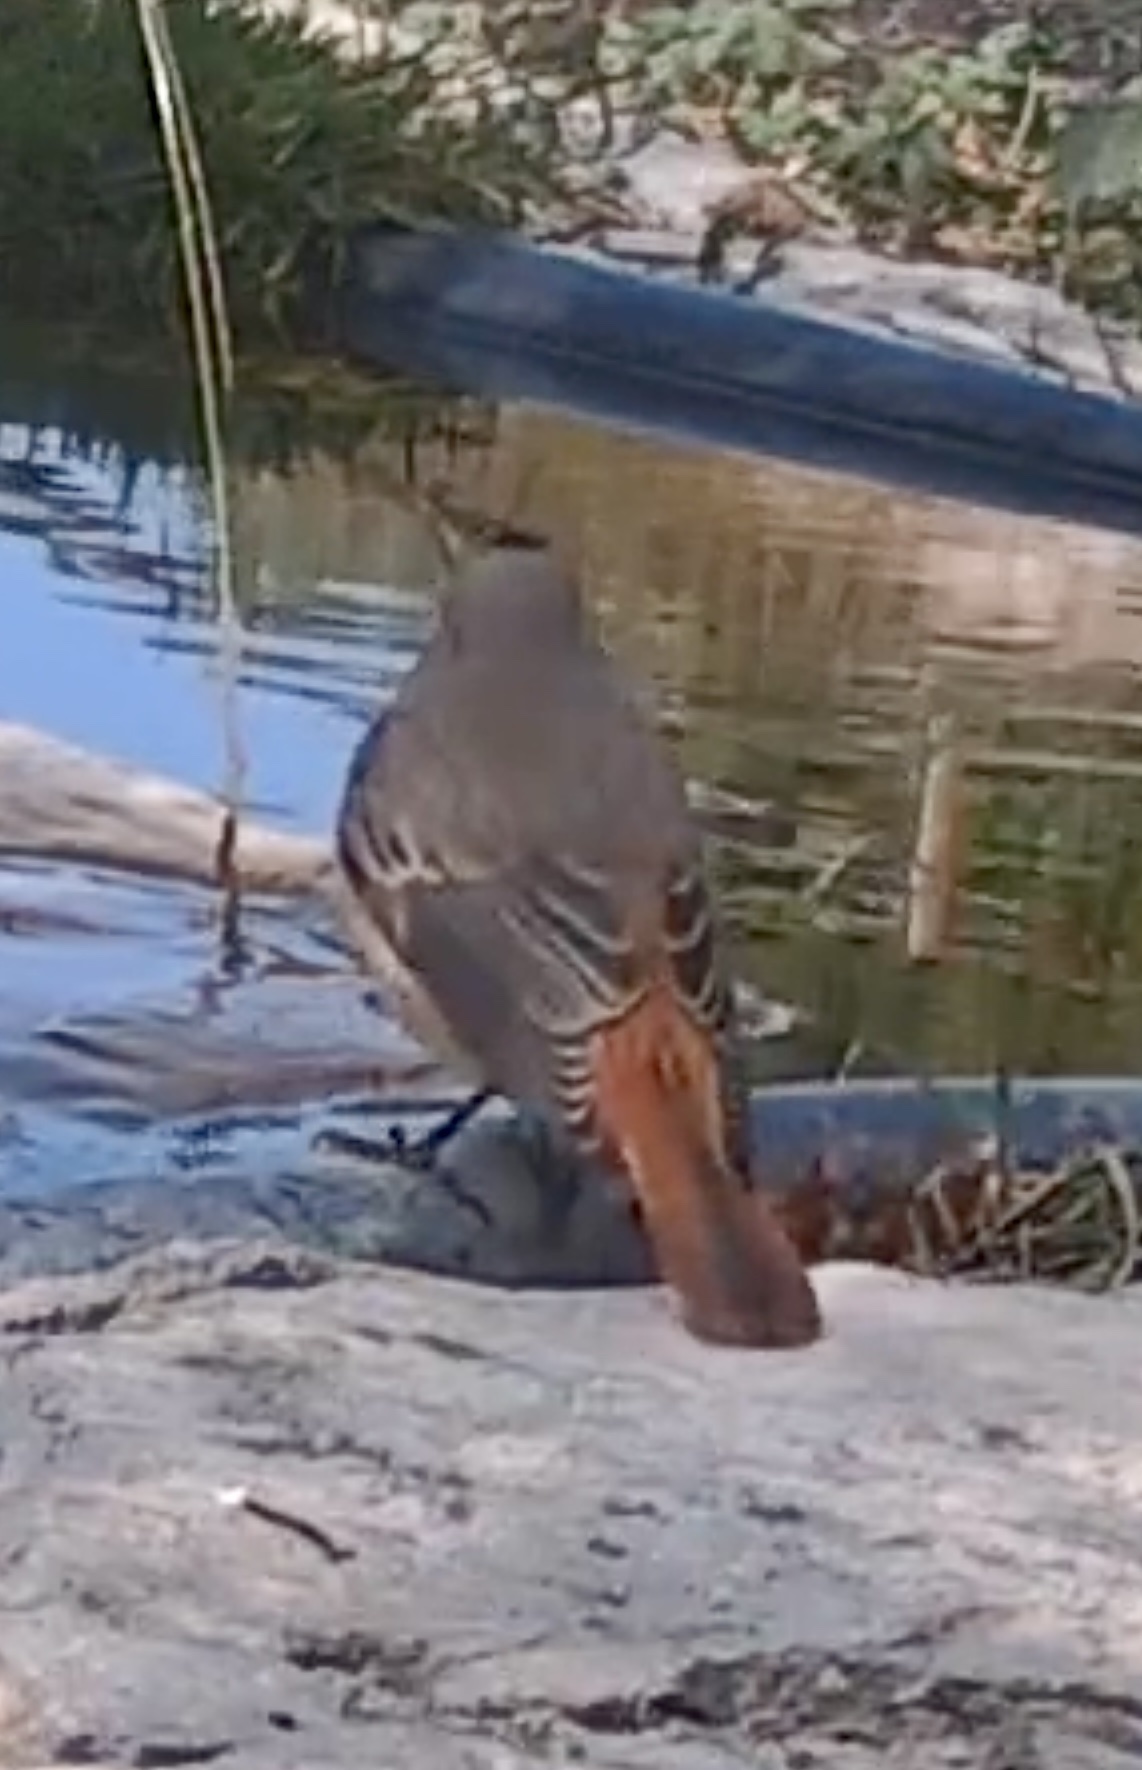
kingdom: Animalia
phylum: Chordata
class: Aves
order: Passeriformes
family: Muscicapidae
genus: Phoenicurus
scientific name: Phoenicurus phoenicurus
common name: Common redstart
